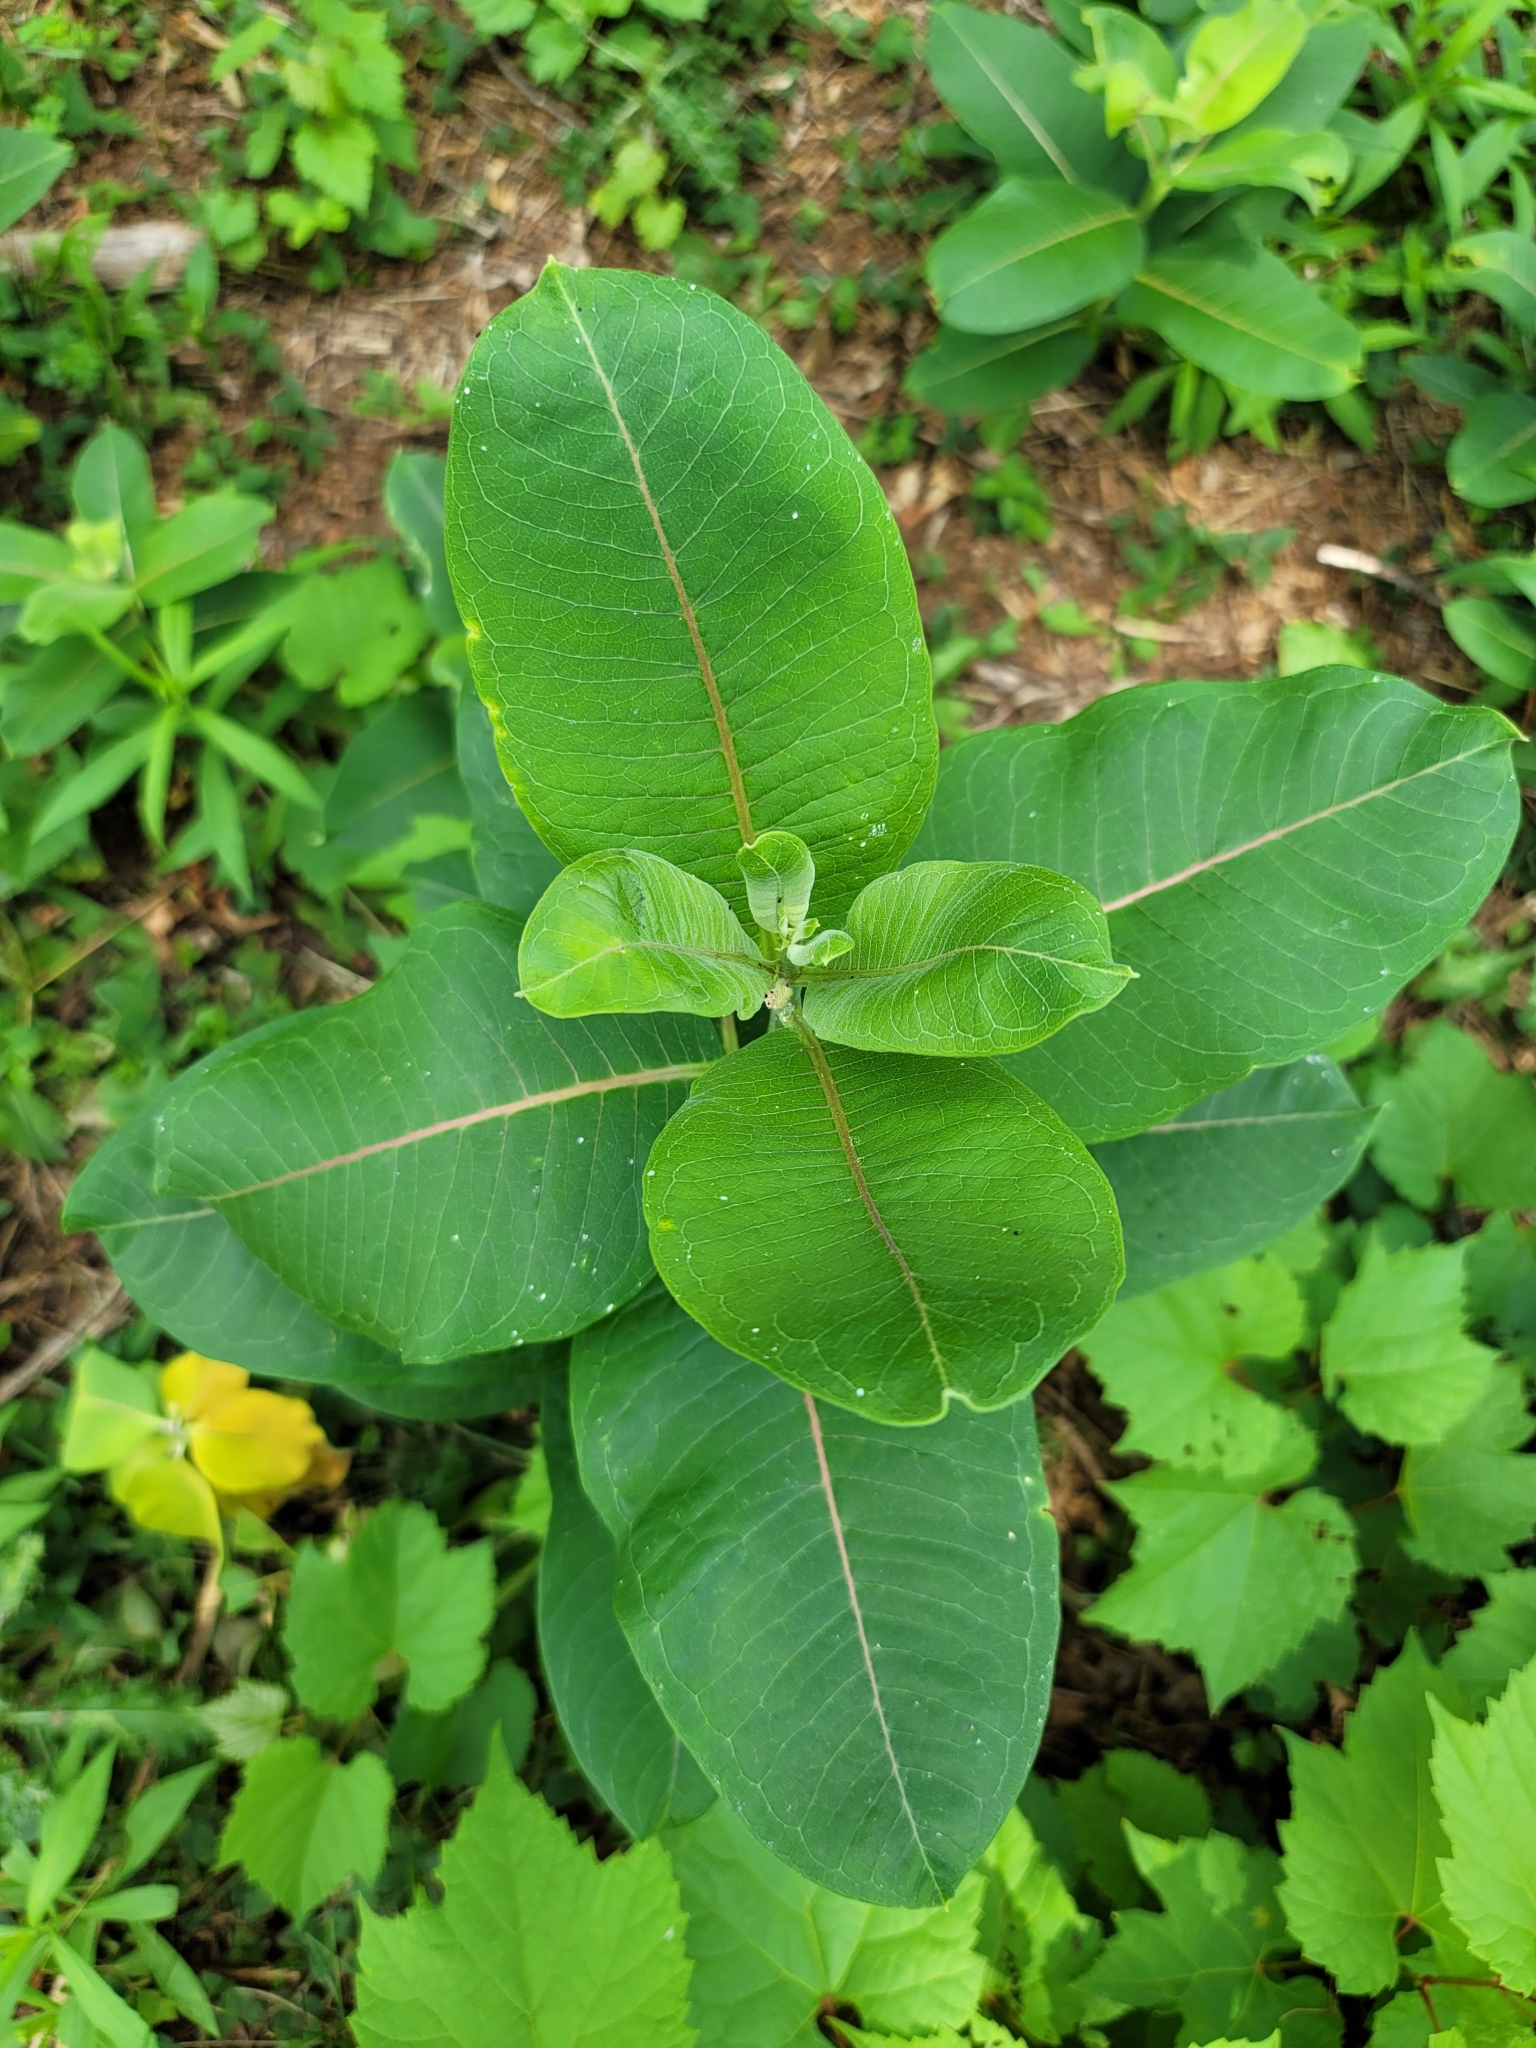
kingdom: Plantae
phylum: Tracheophyta
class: Magnoliopsida
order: Gentianales
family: Apocynaceae
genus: Asclepias
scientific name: Asclepias syriaca
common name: Common milkweed
